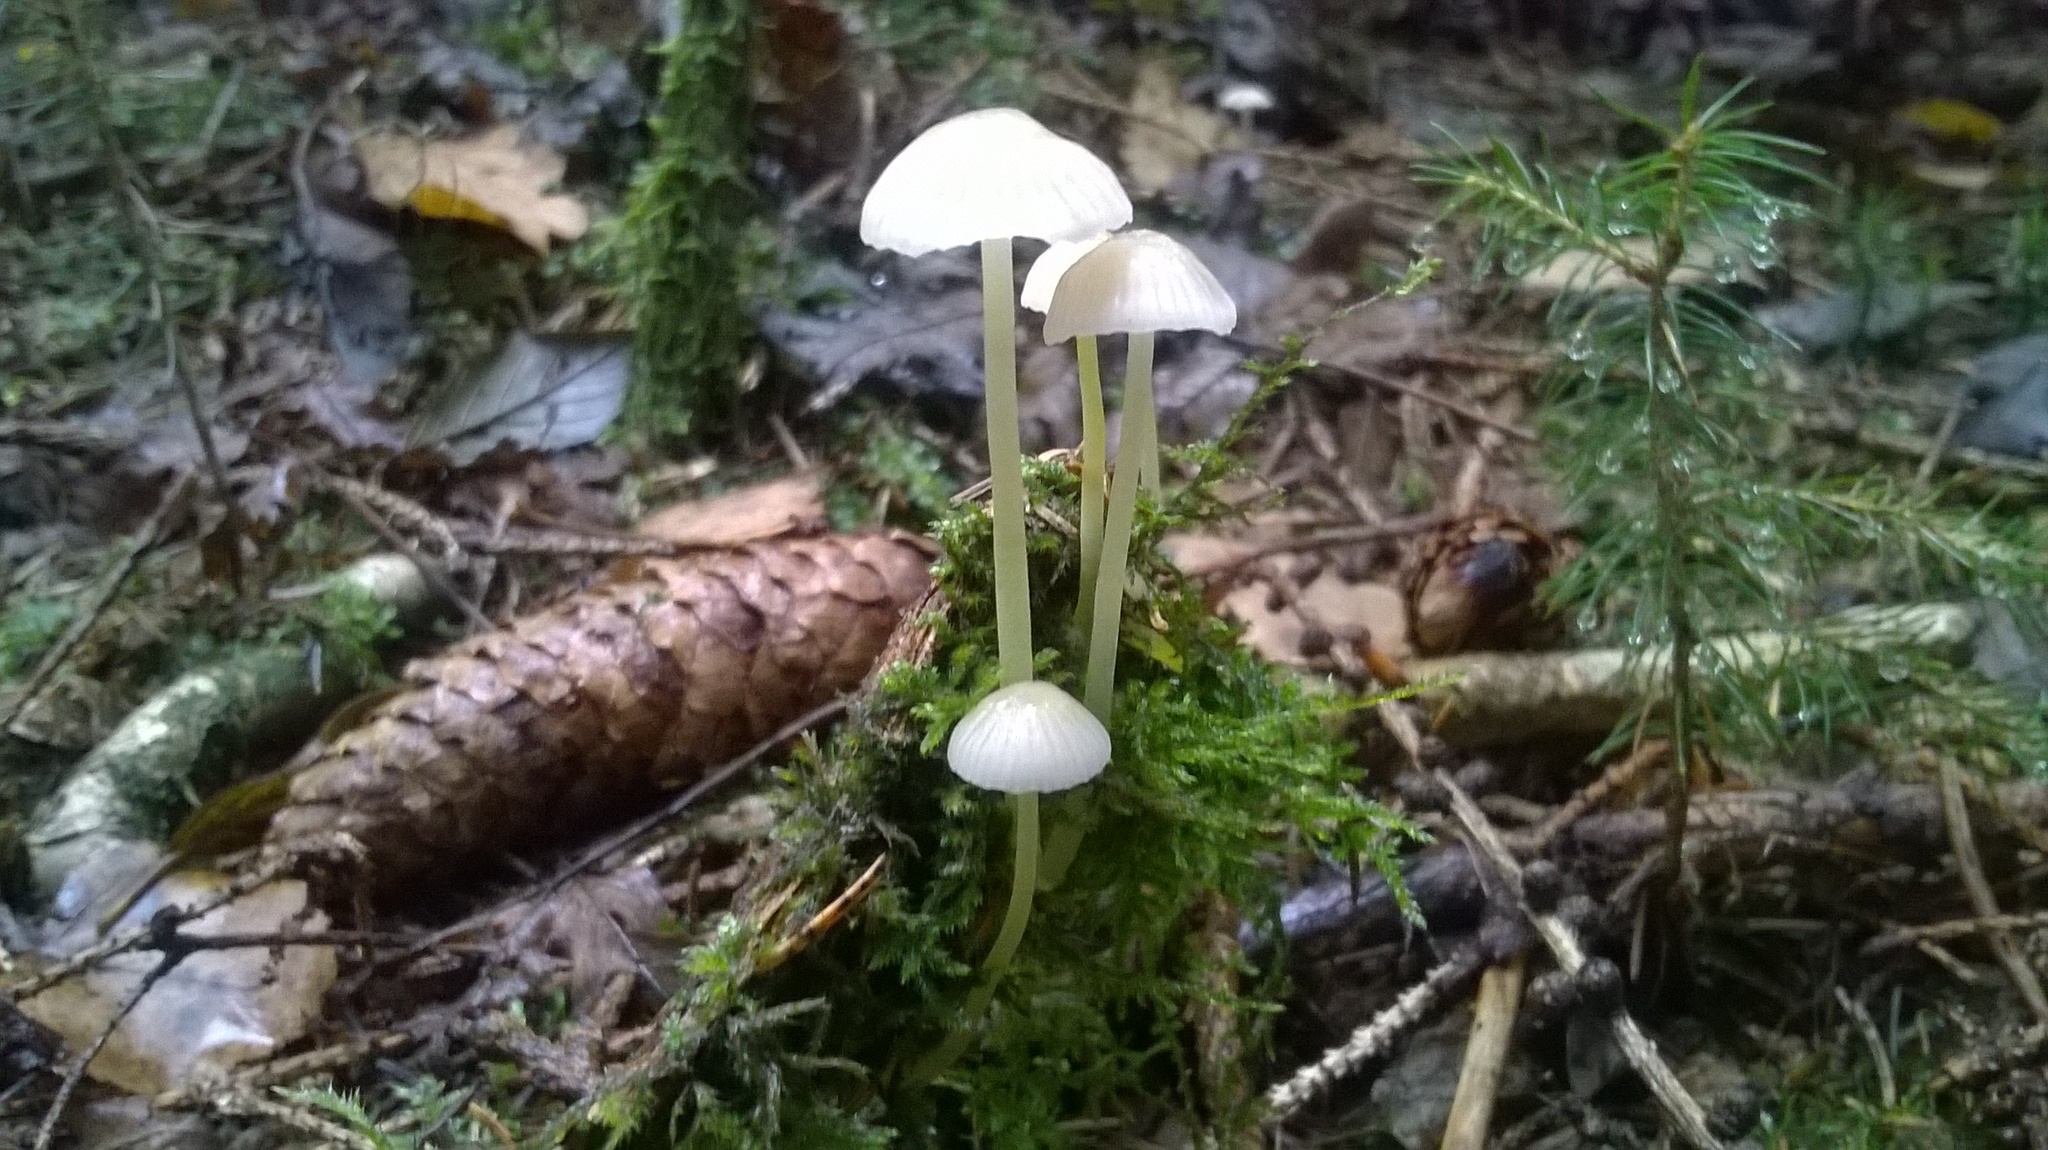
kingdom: Fungi
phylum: Basidiomycota
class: Agaricomycetes
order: Agaricales
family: Mycenaceae
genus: Mycena
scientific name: Mycena epipterygia
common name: Yellowleg bonnet
